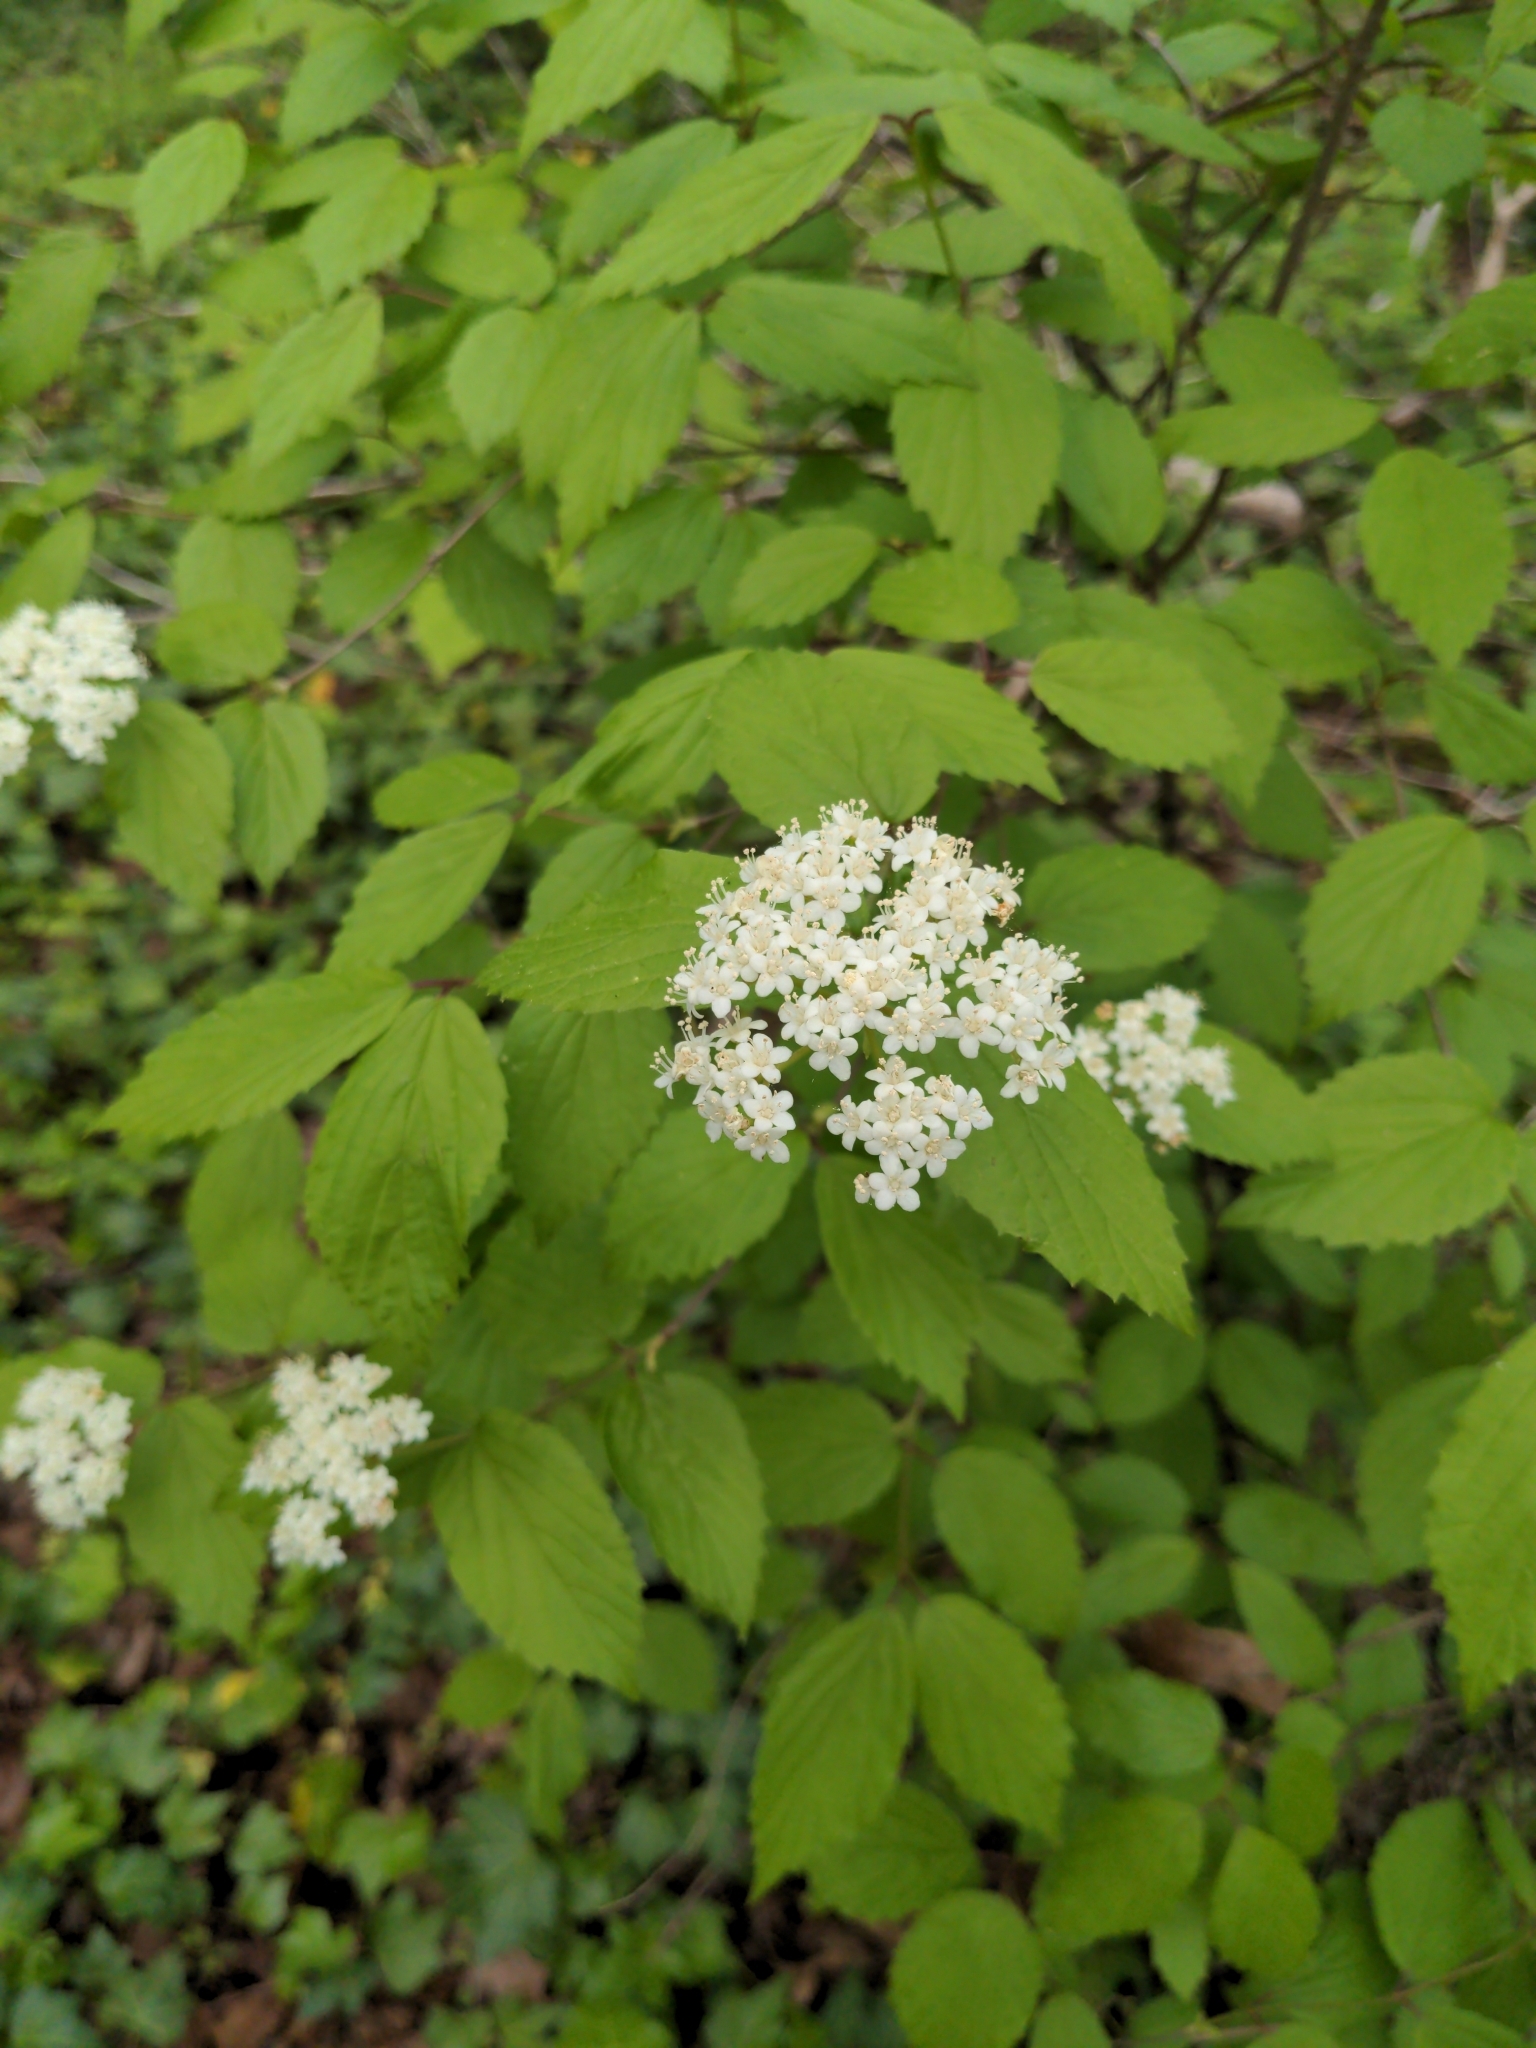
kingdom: Plantae
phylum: Tracheophyta
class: Magnoliopsida
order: Dipsacales
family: Viburnaceae
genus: Viburnum
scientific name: Viburnum rafinesqueanum
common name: Downy arrow-wood
